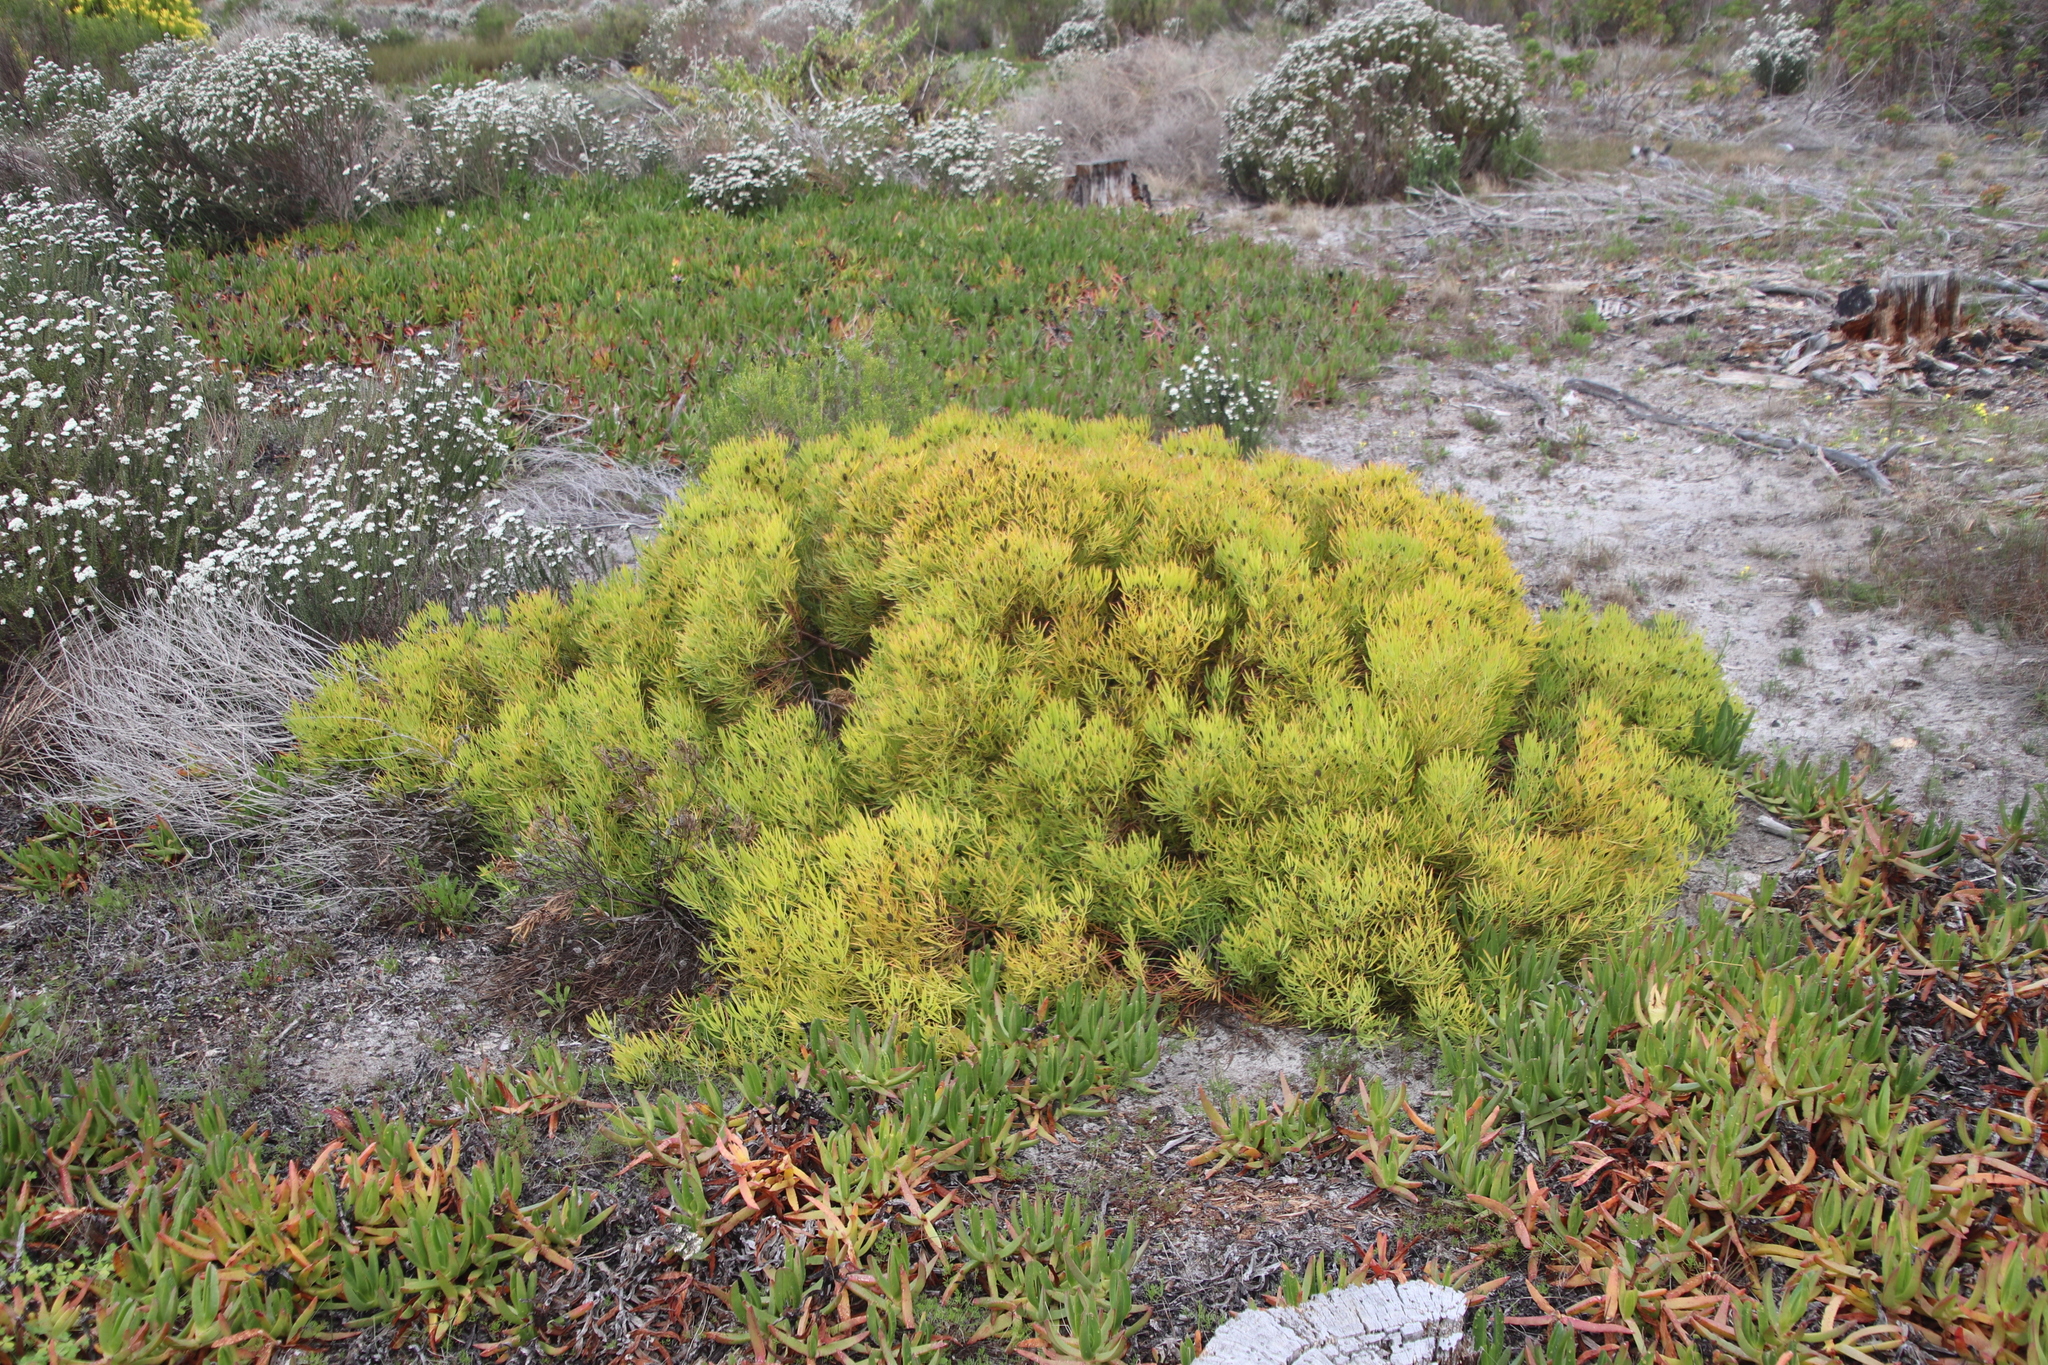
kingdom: Plantae
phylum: Tracheophyta
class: Magnoliopsida
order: Proteales
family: Proteaceae
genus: Leucadendron
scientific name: Leucadendron salignum
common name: Common sunshine conebush
